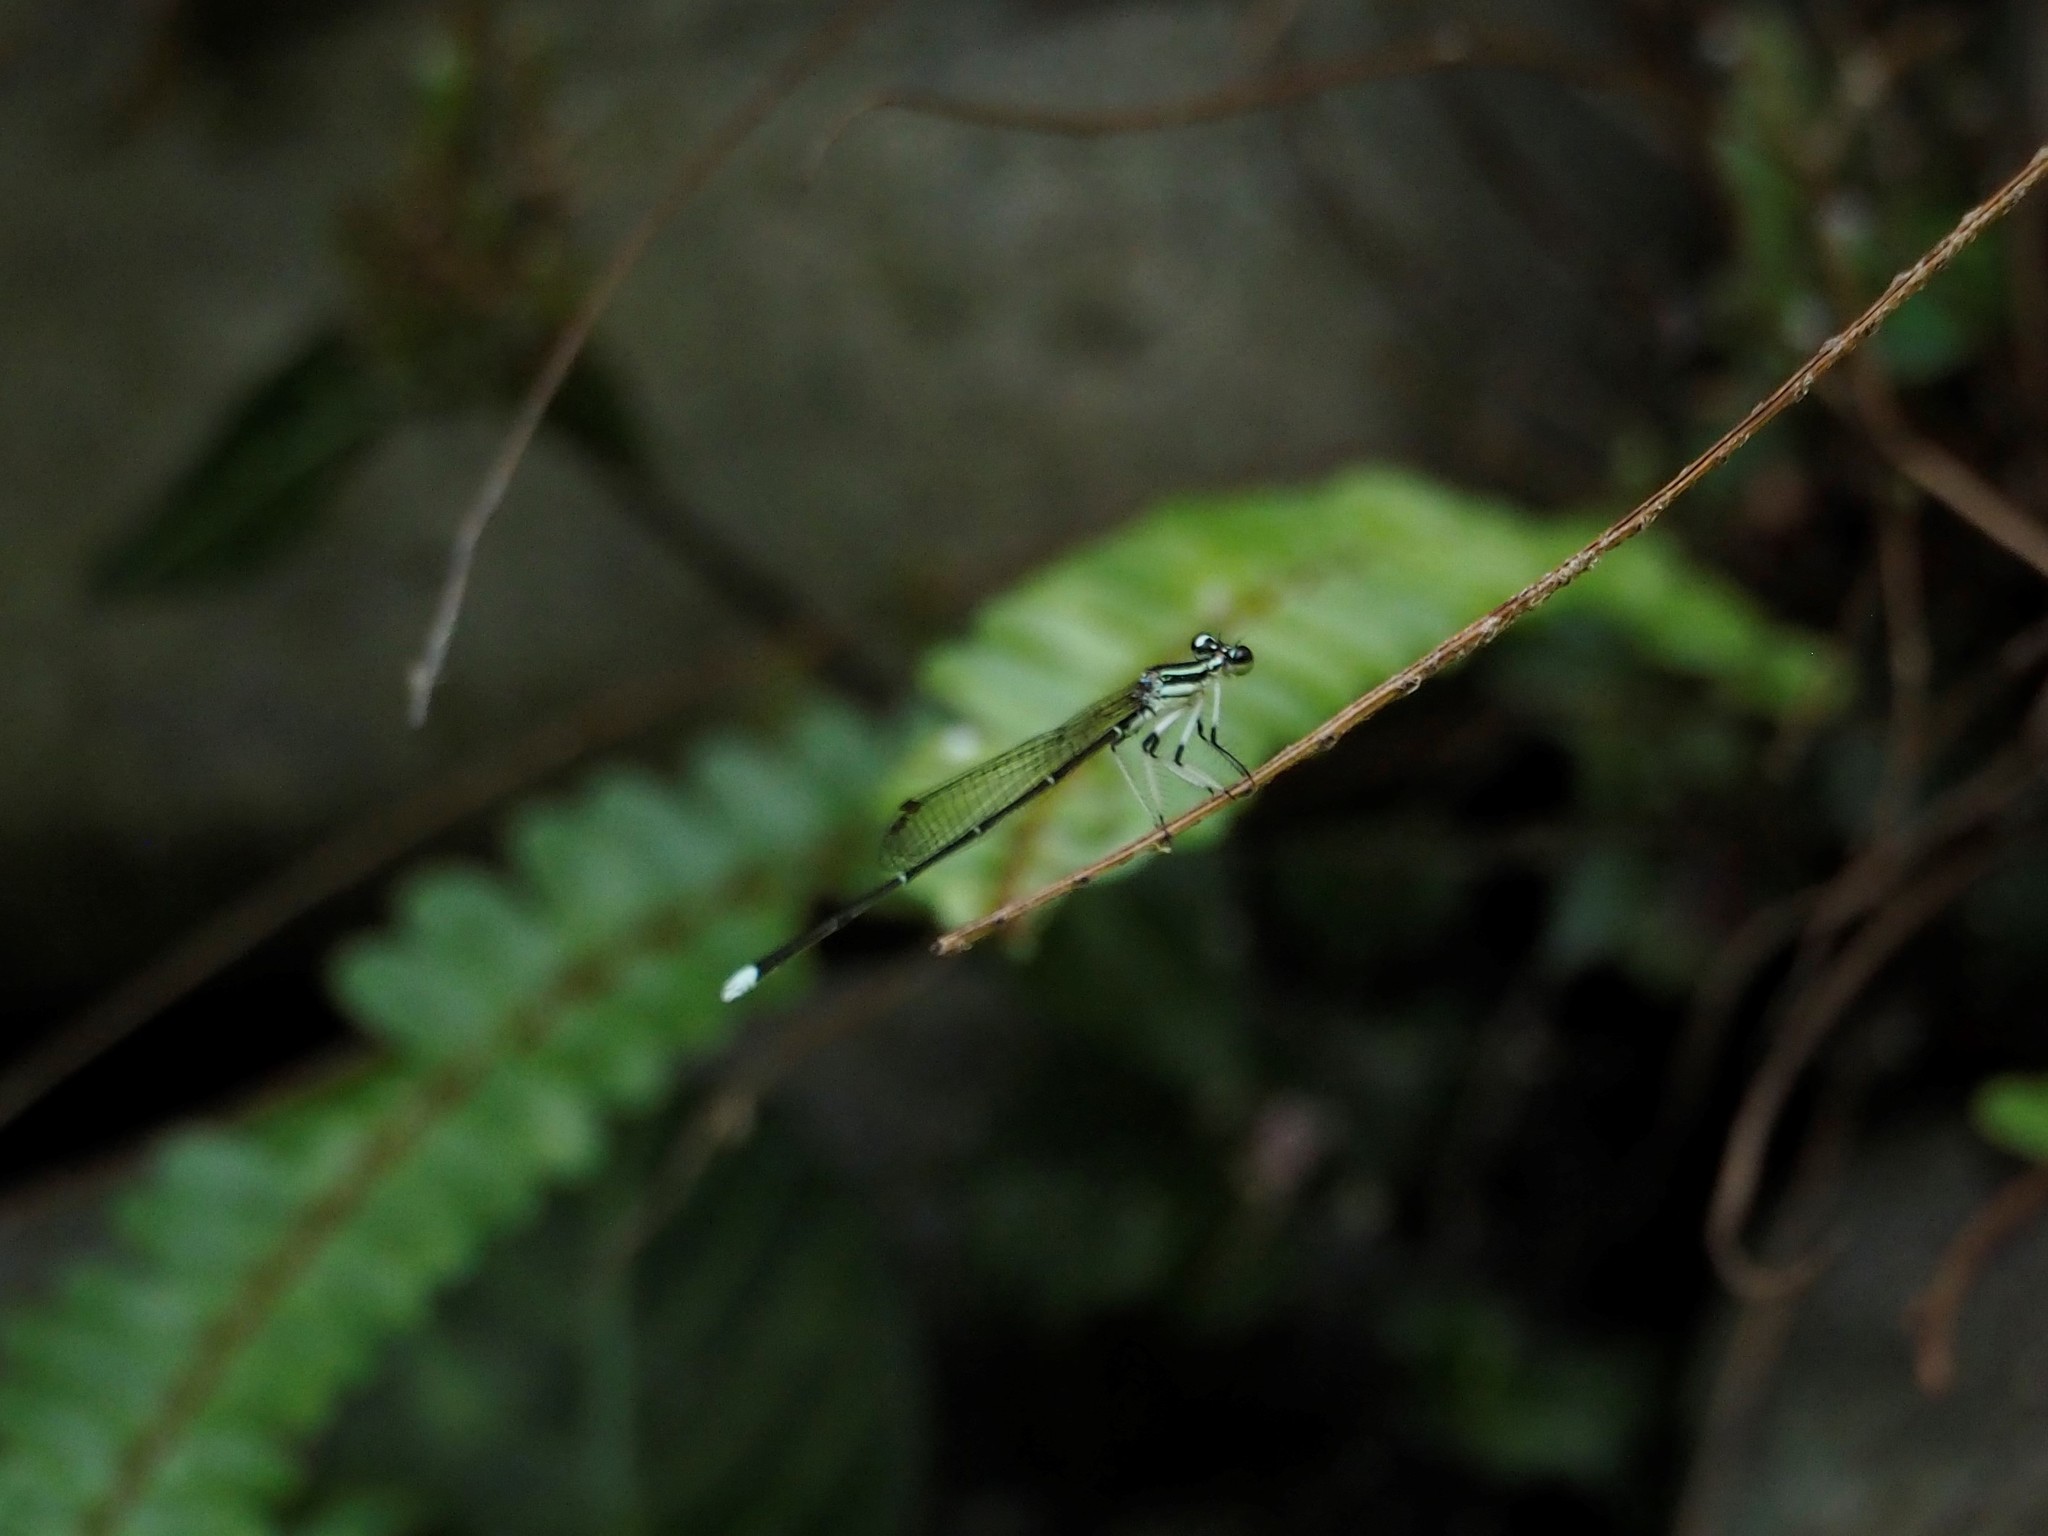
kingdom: Animalia
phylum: Arthropoda
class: Insecta
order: Odonata
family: Platycnemididae
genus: Pseudocopera
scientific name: Pseudocopera ciliata
